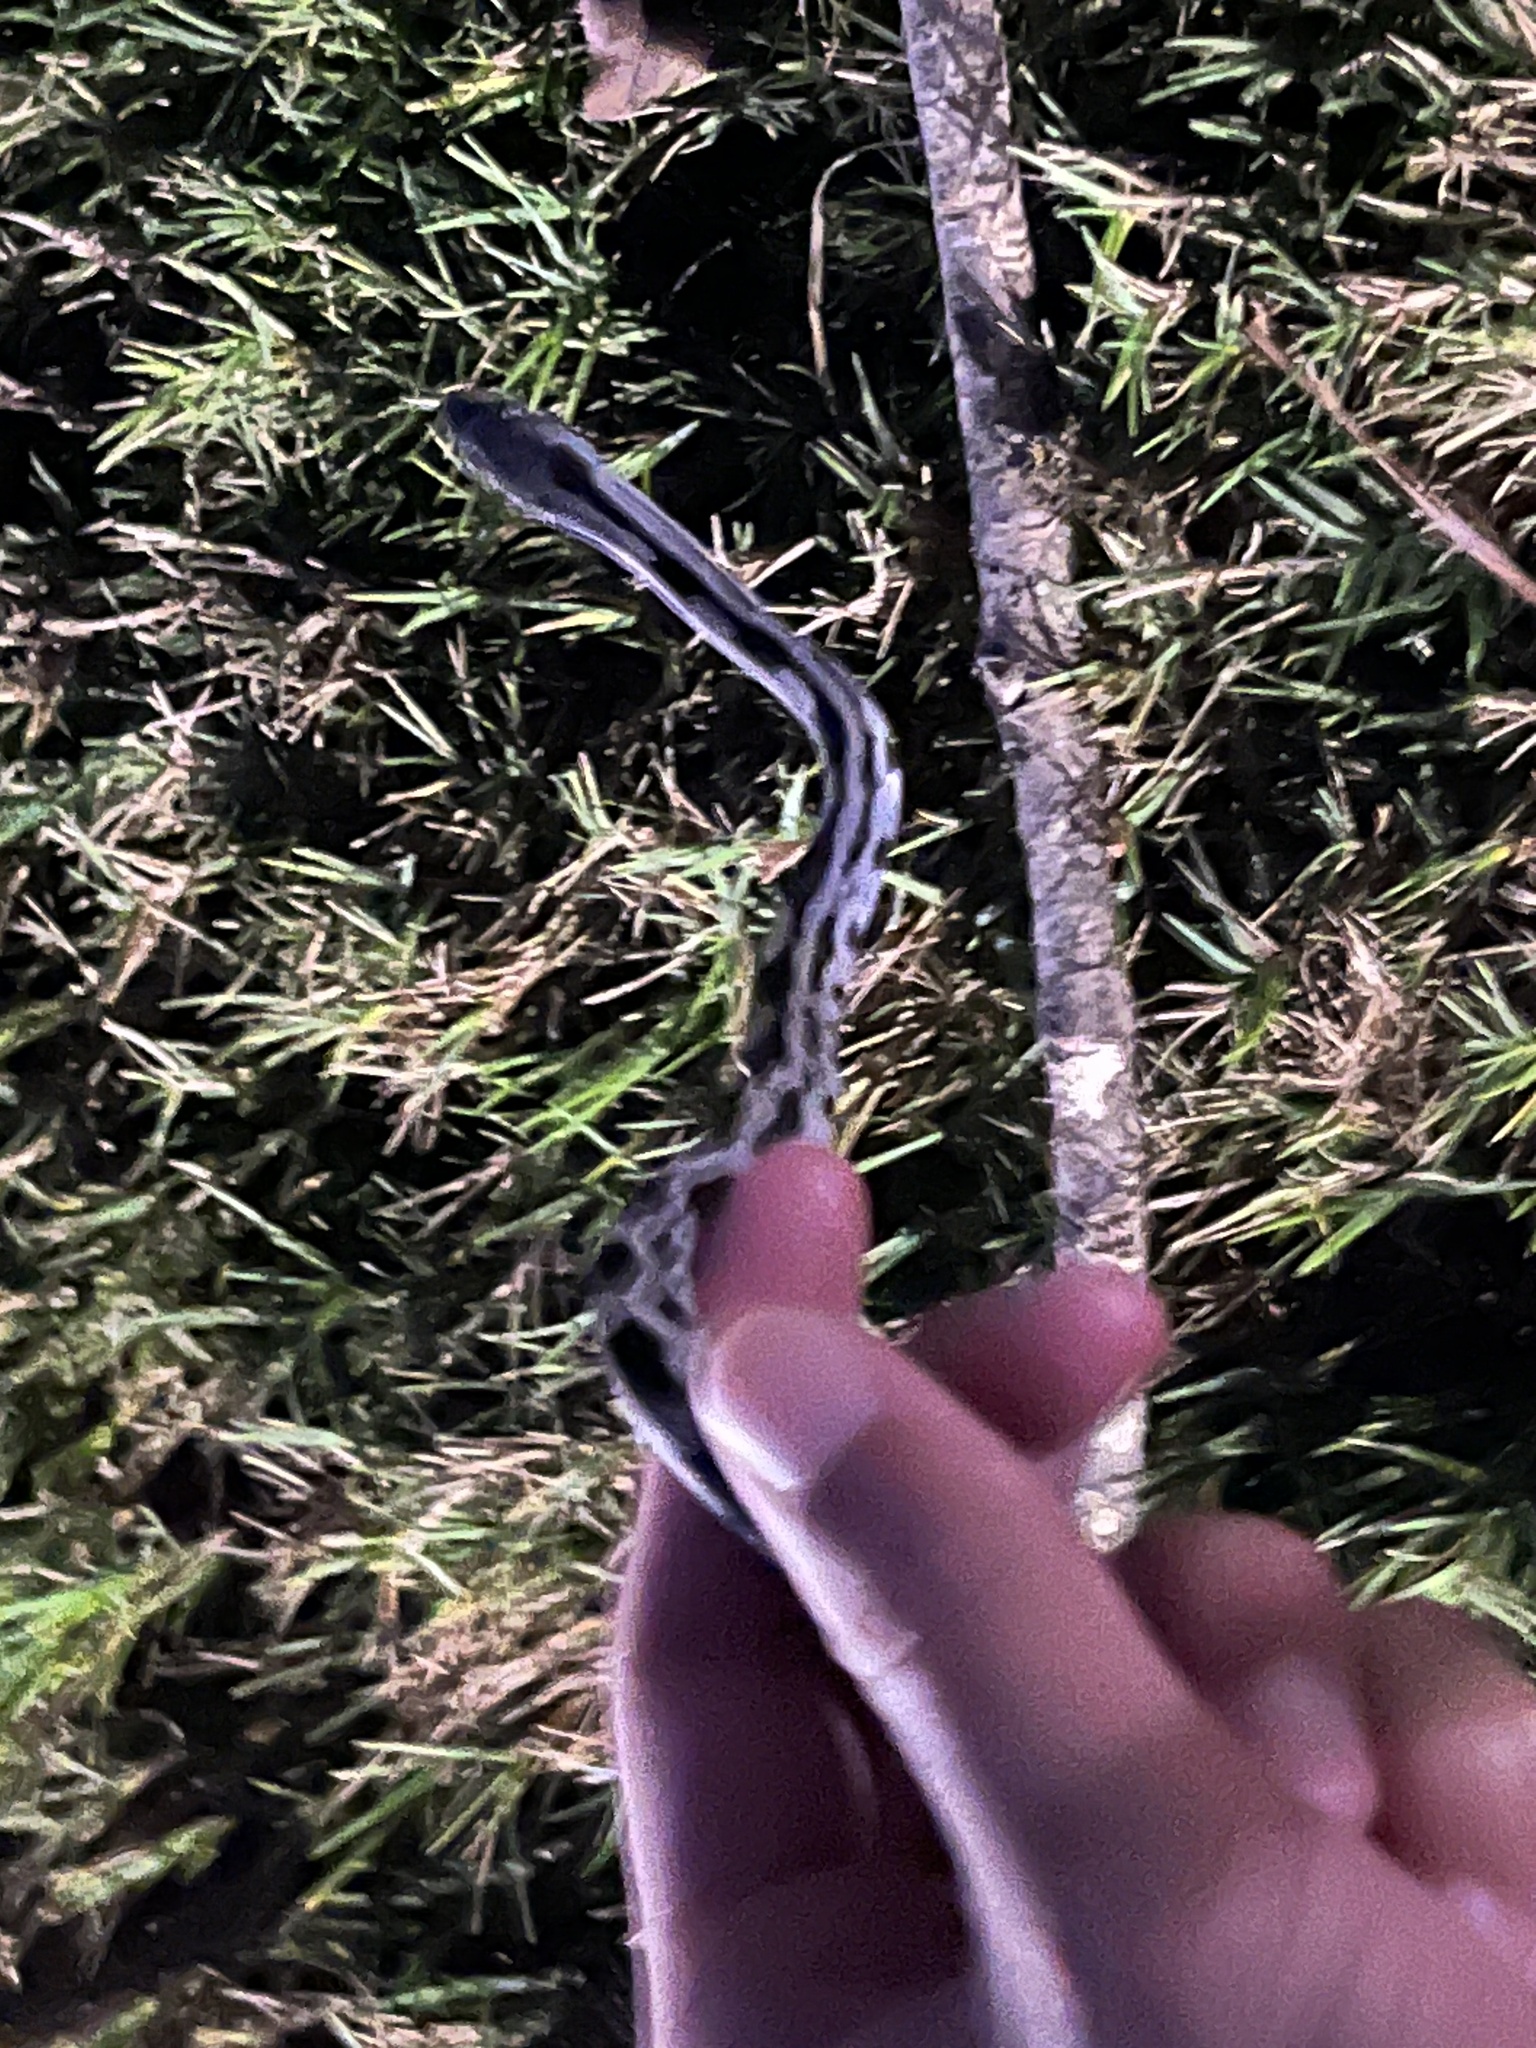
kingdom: Animalia
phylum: Chordata
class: Squamata
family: Colubridae
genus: Pantherophis
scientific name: Pantherophis spiloides
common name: Gray rat snake
